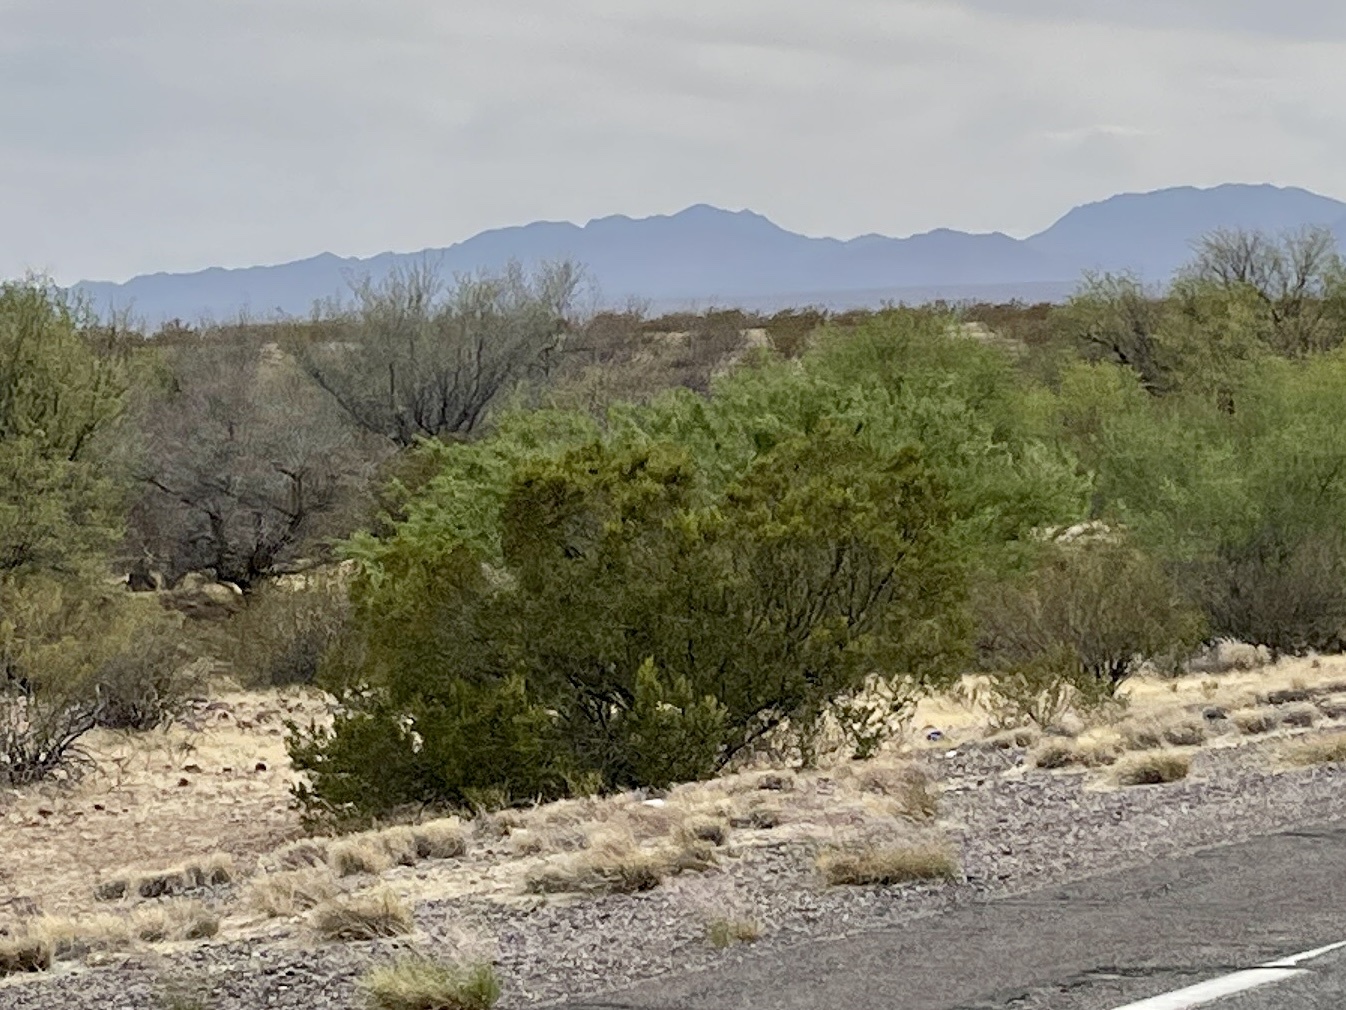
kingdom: Plantae
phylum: Tracheophyta
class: Magnoliopsida
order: Zygophyllales
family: Zygophyllaceae
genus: Larrea
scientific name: Larrea tridentata
